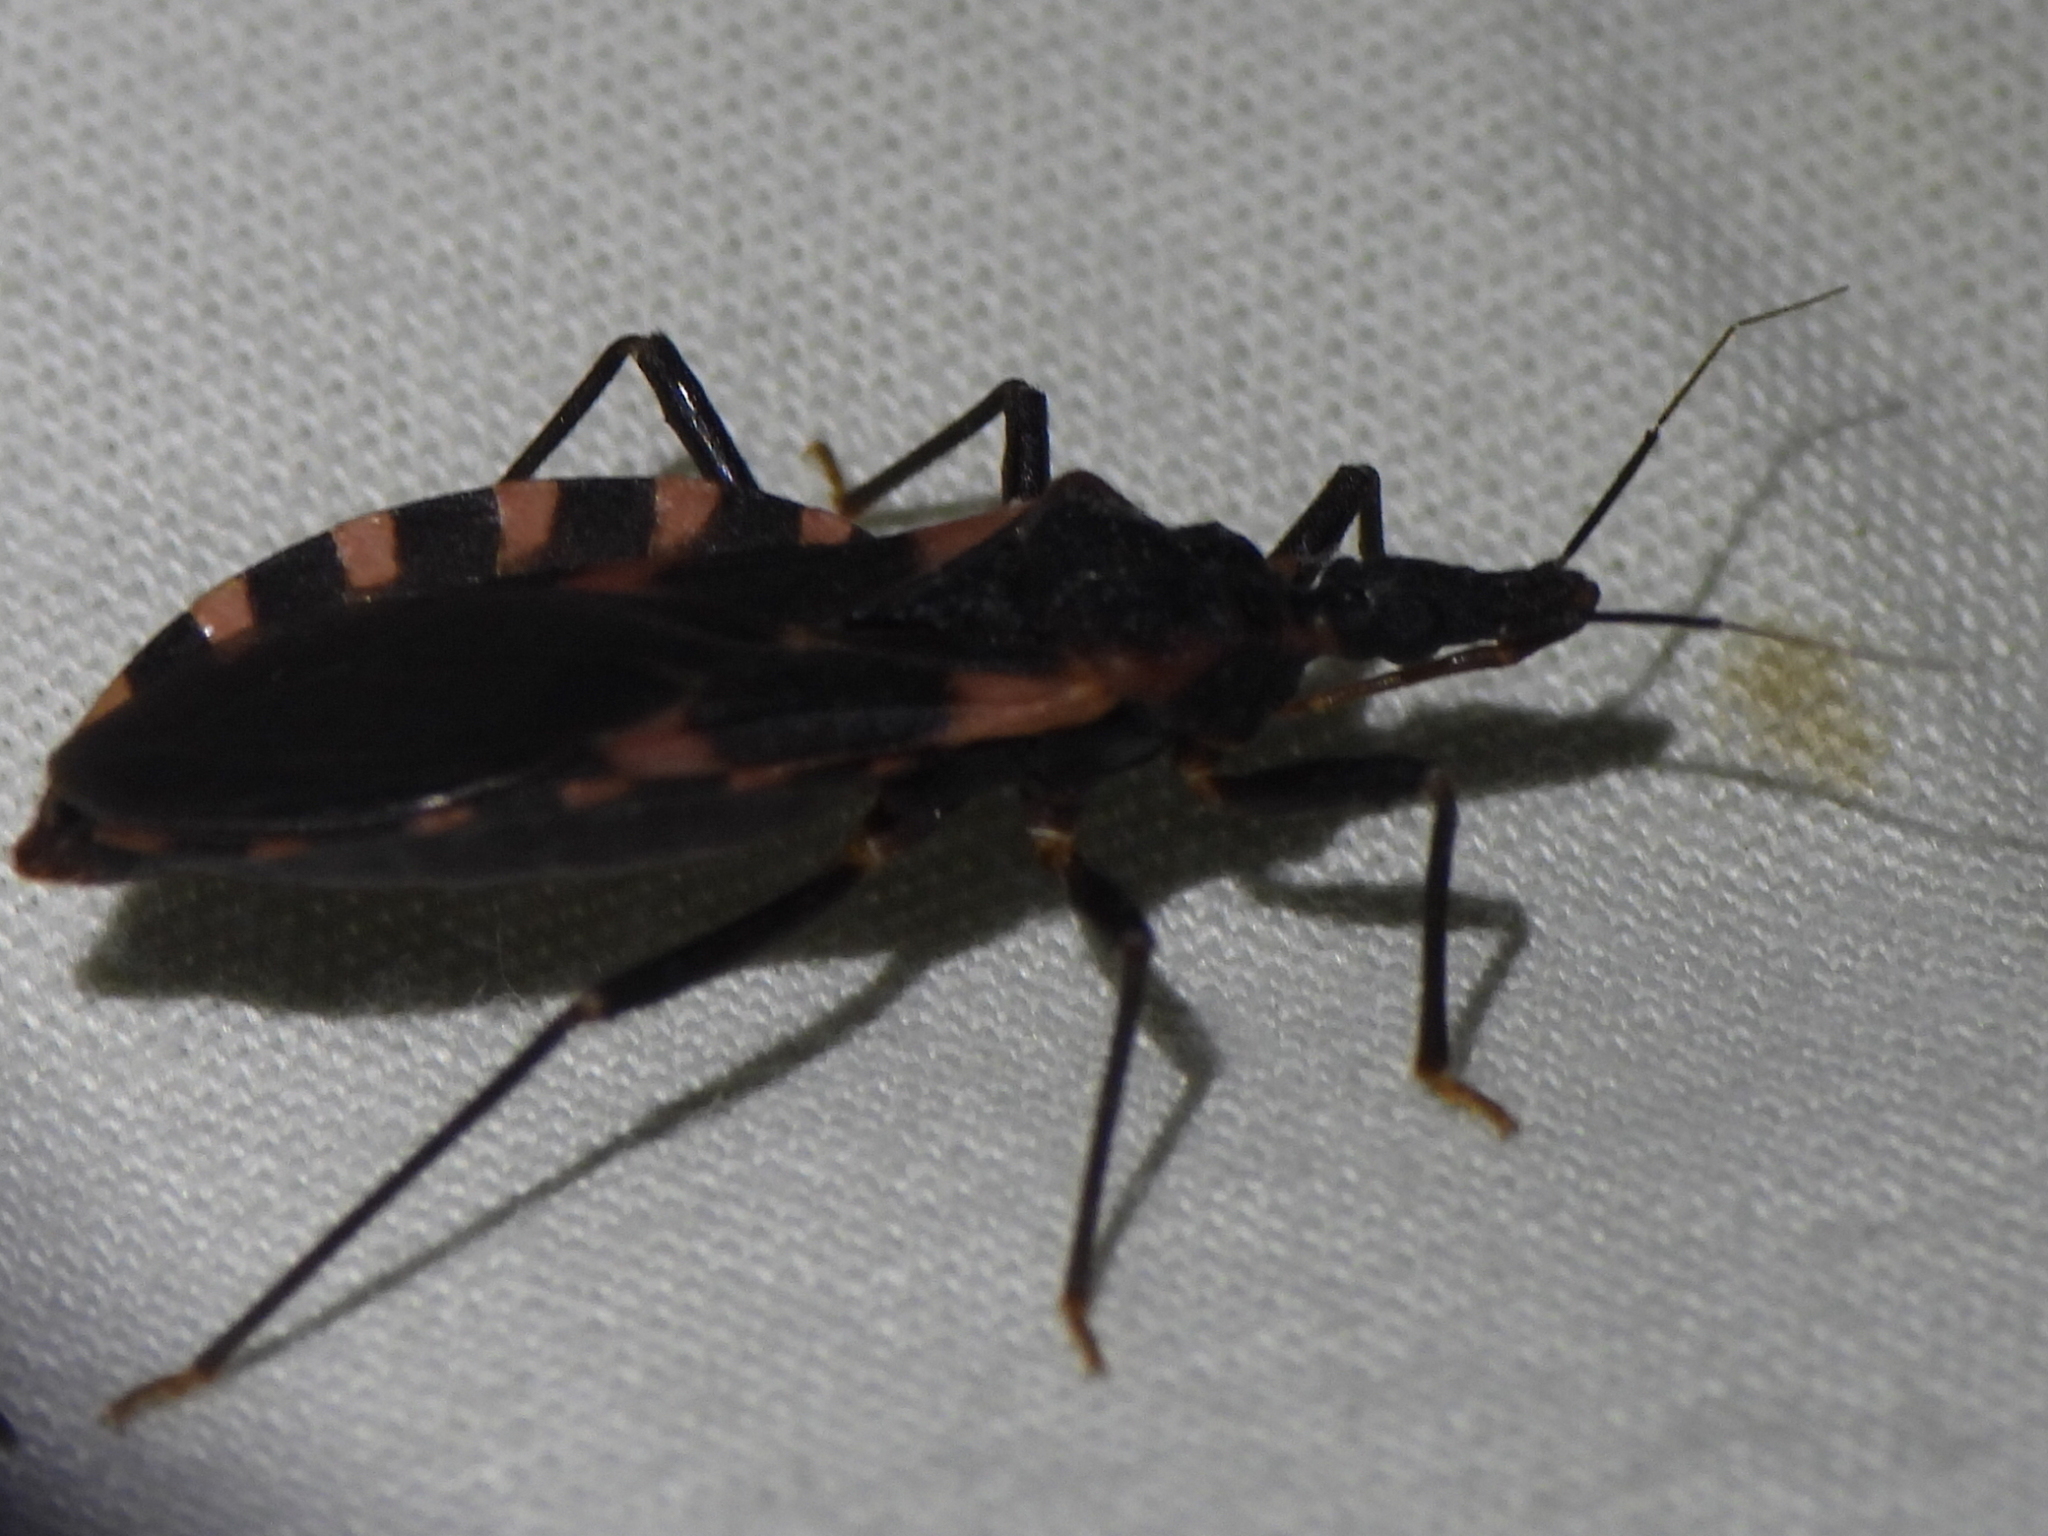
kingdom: Animalia
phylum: Arthropoda
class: Insecta
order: Hemiptera
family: Reduviidae
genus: Triatoma
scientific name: Triatoma sanguisuga
